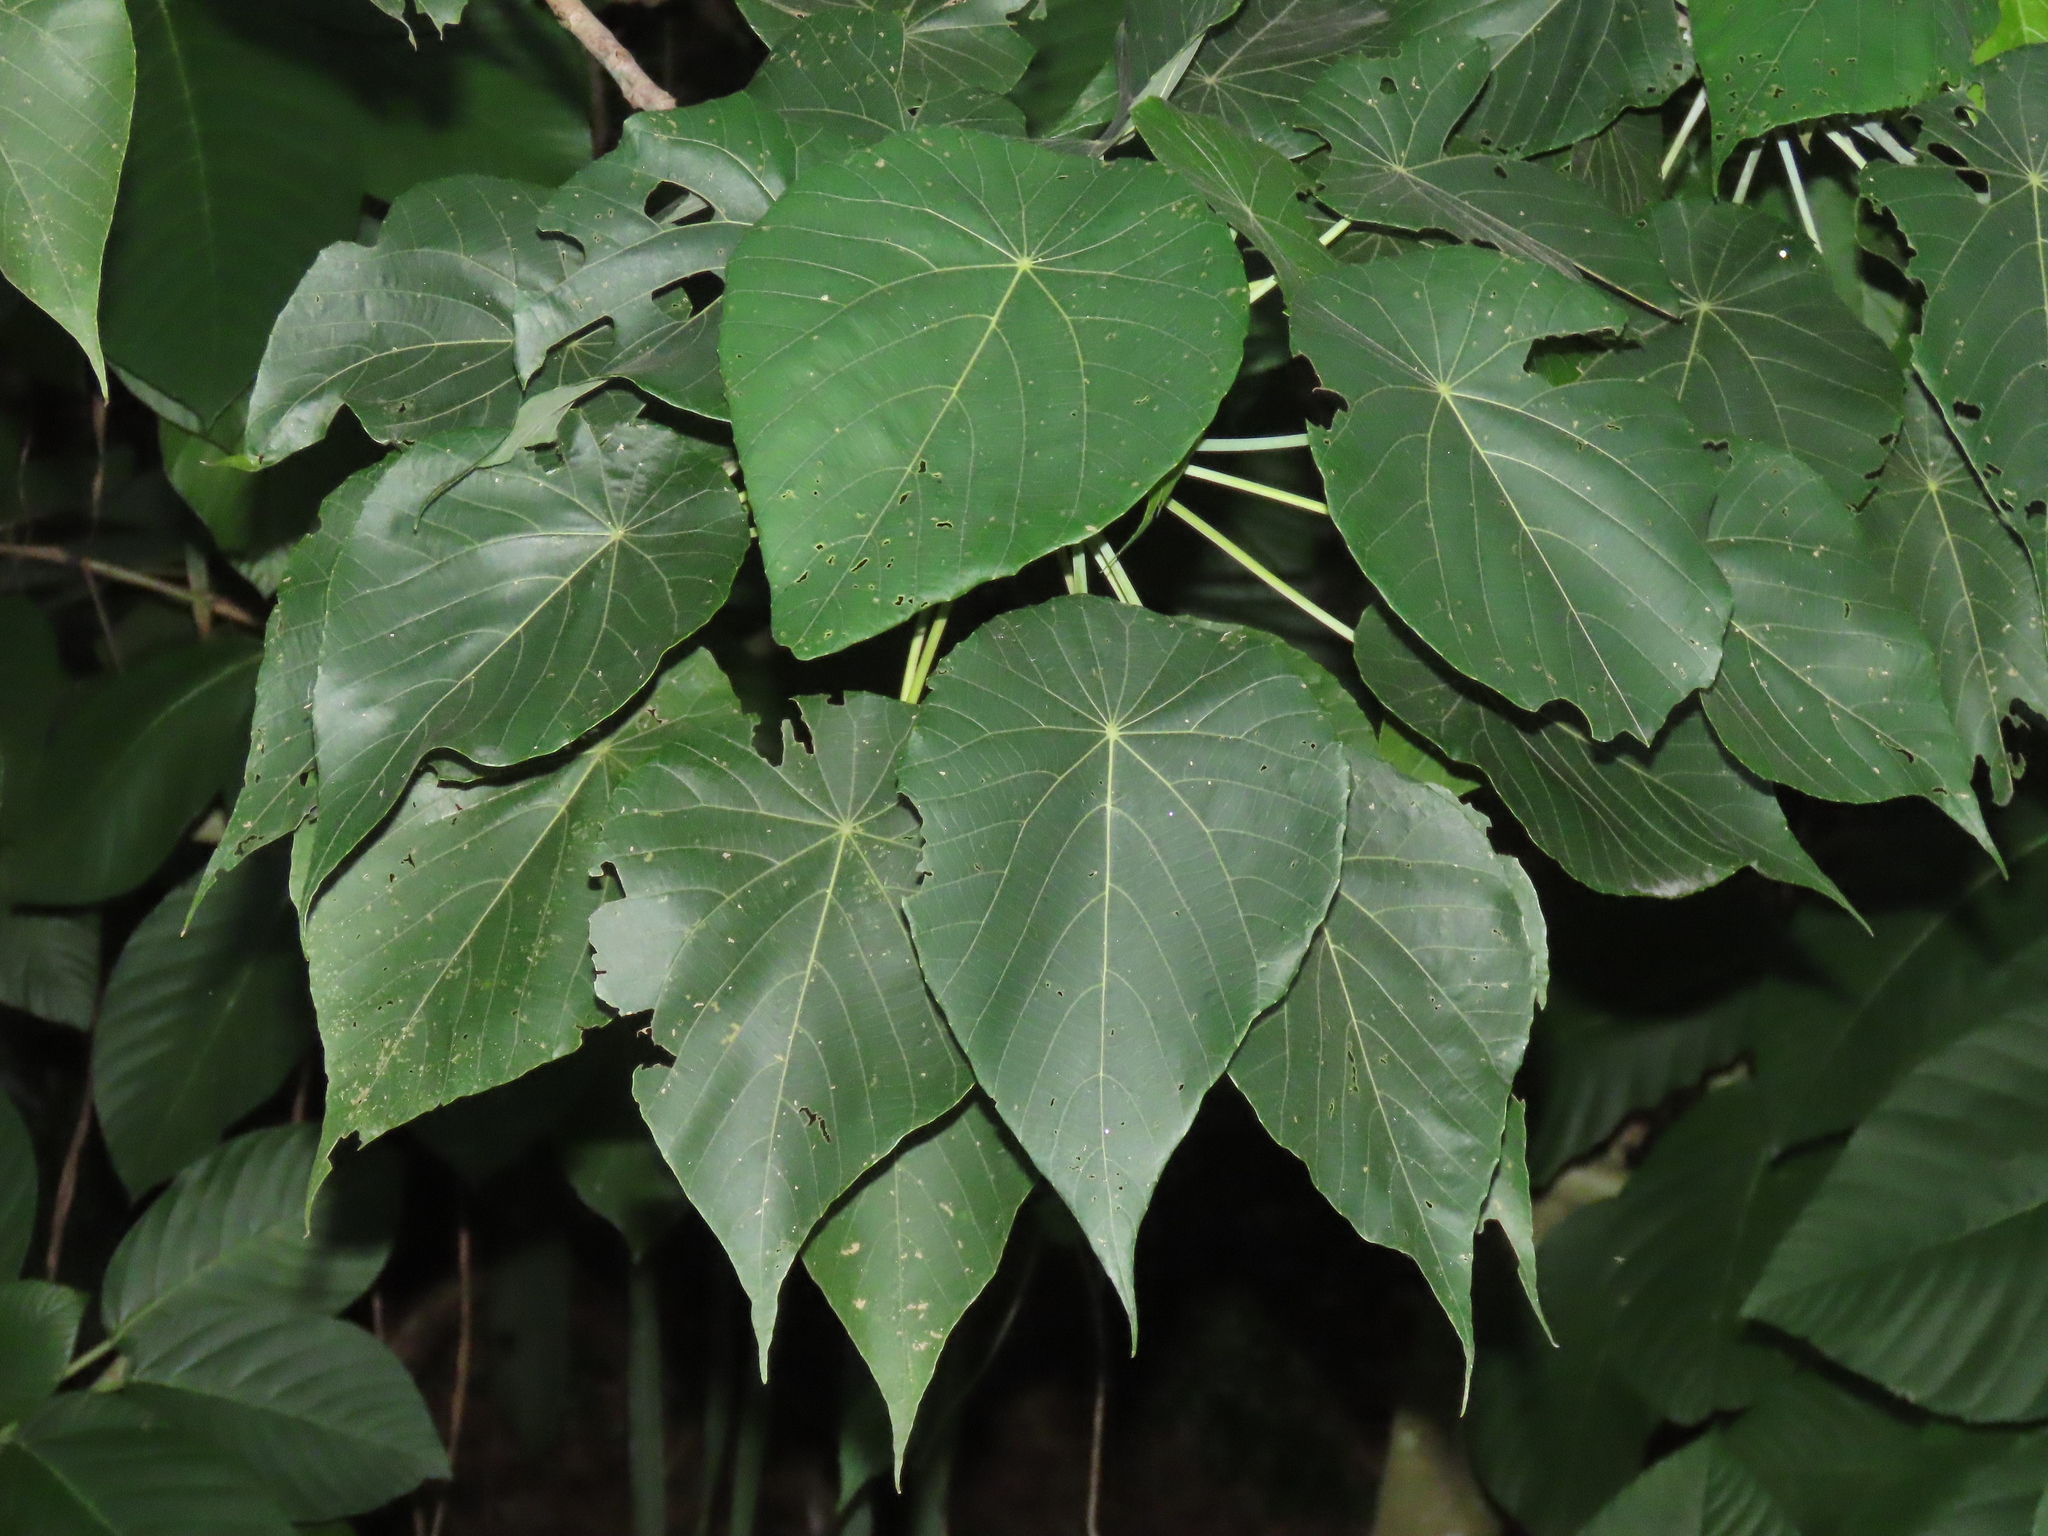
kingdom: Plantae
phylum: Tracheophyta
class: Magnoliopsida
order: Malpighiales
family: Euphorbiaceae
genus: Macaranga
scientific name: Macaranga tanarius
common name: Parasol leaf tree
